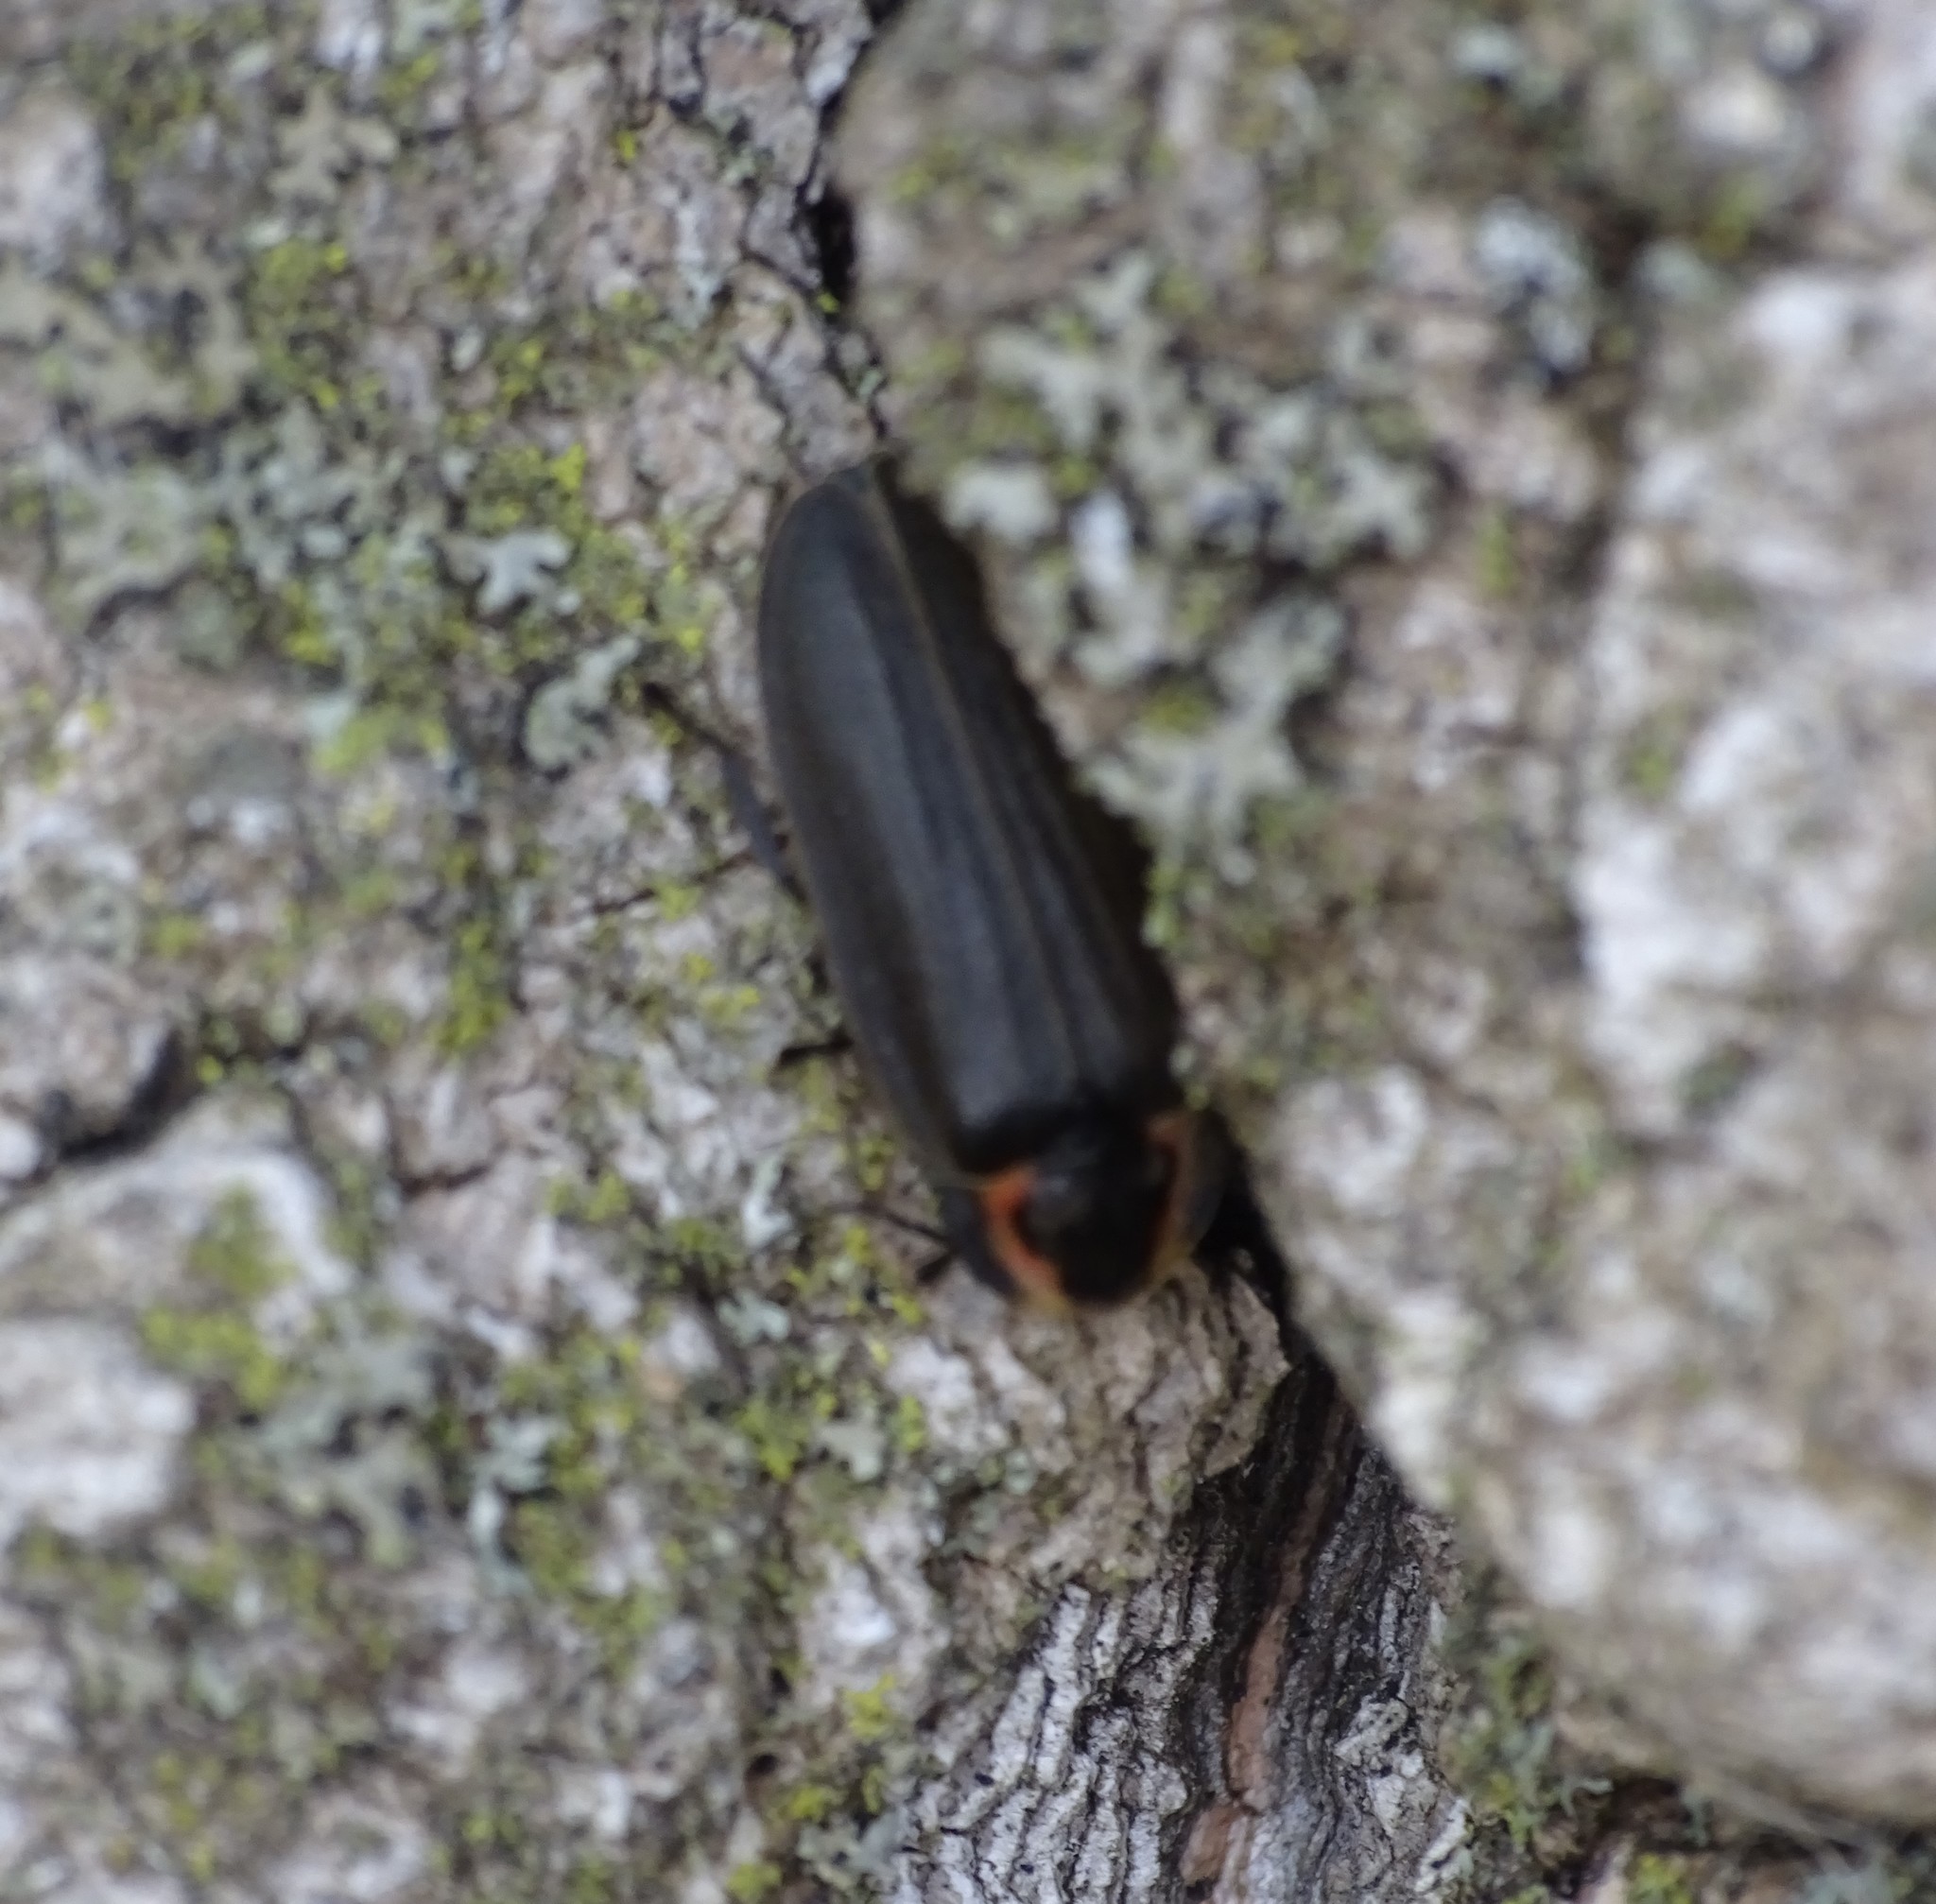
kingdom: Animalia
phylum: Arthropoda
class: Insecta
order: Coleoptera
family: Lampyridae
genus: Photinus
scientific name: Photinus corrusca
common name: Winter firefly
